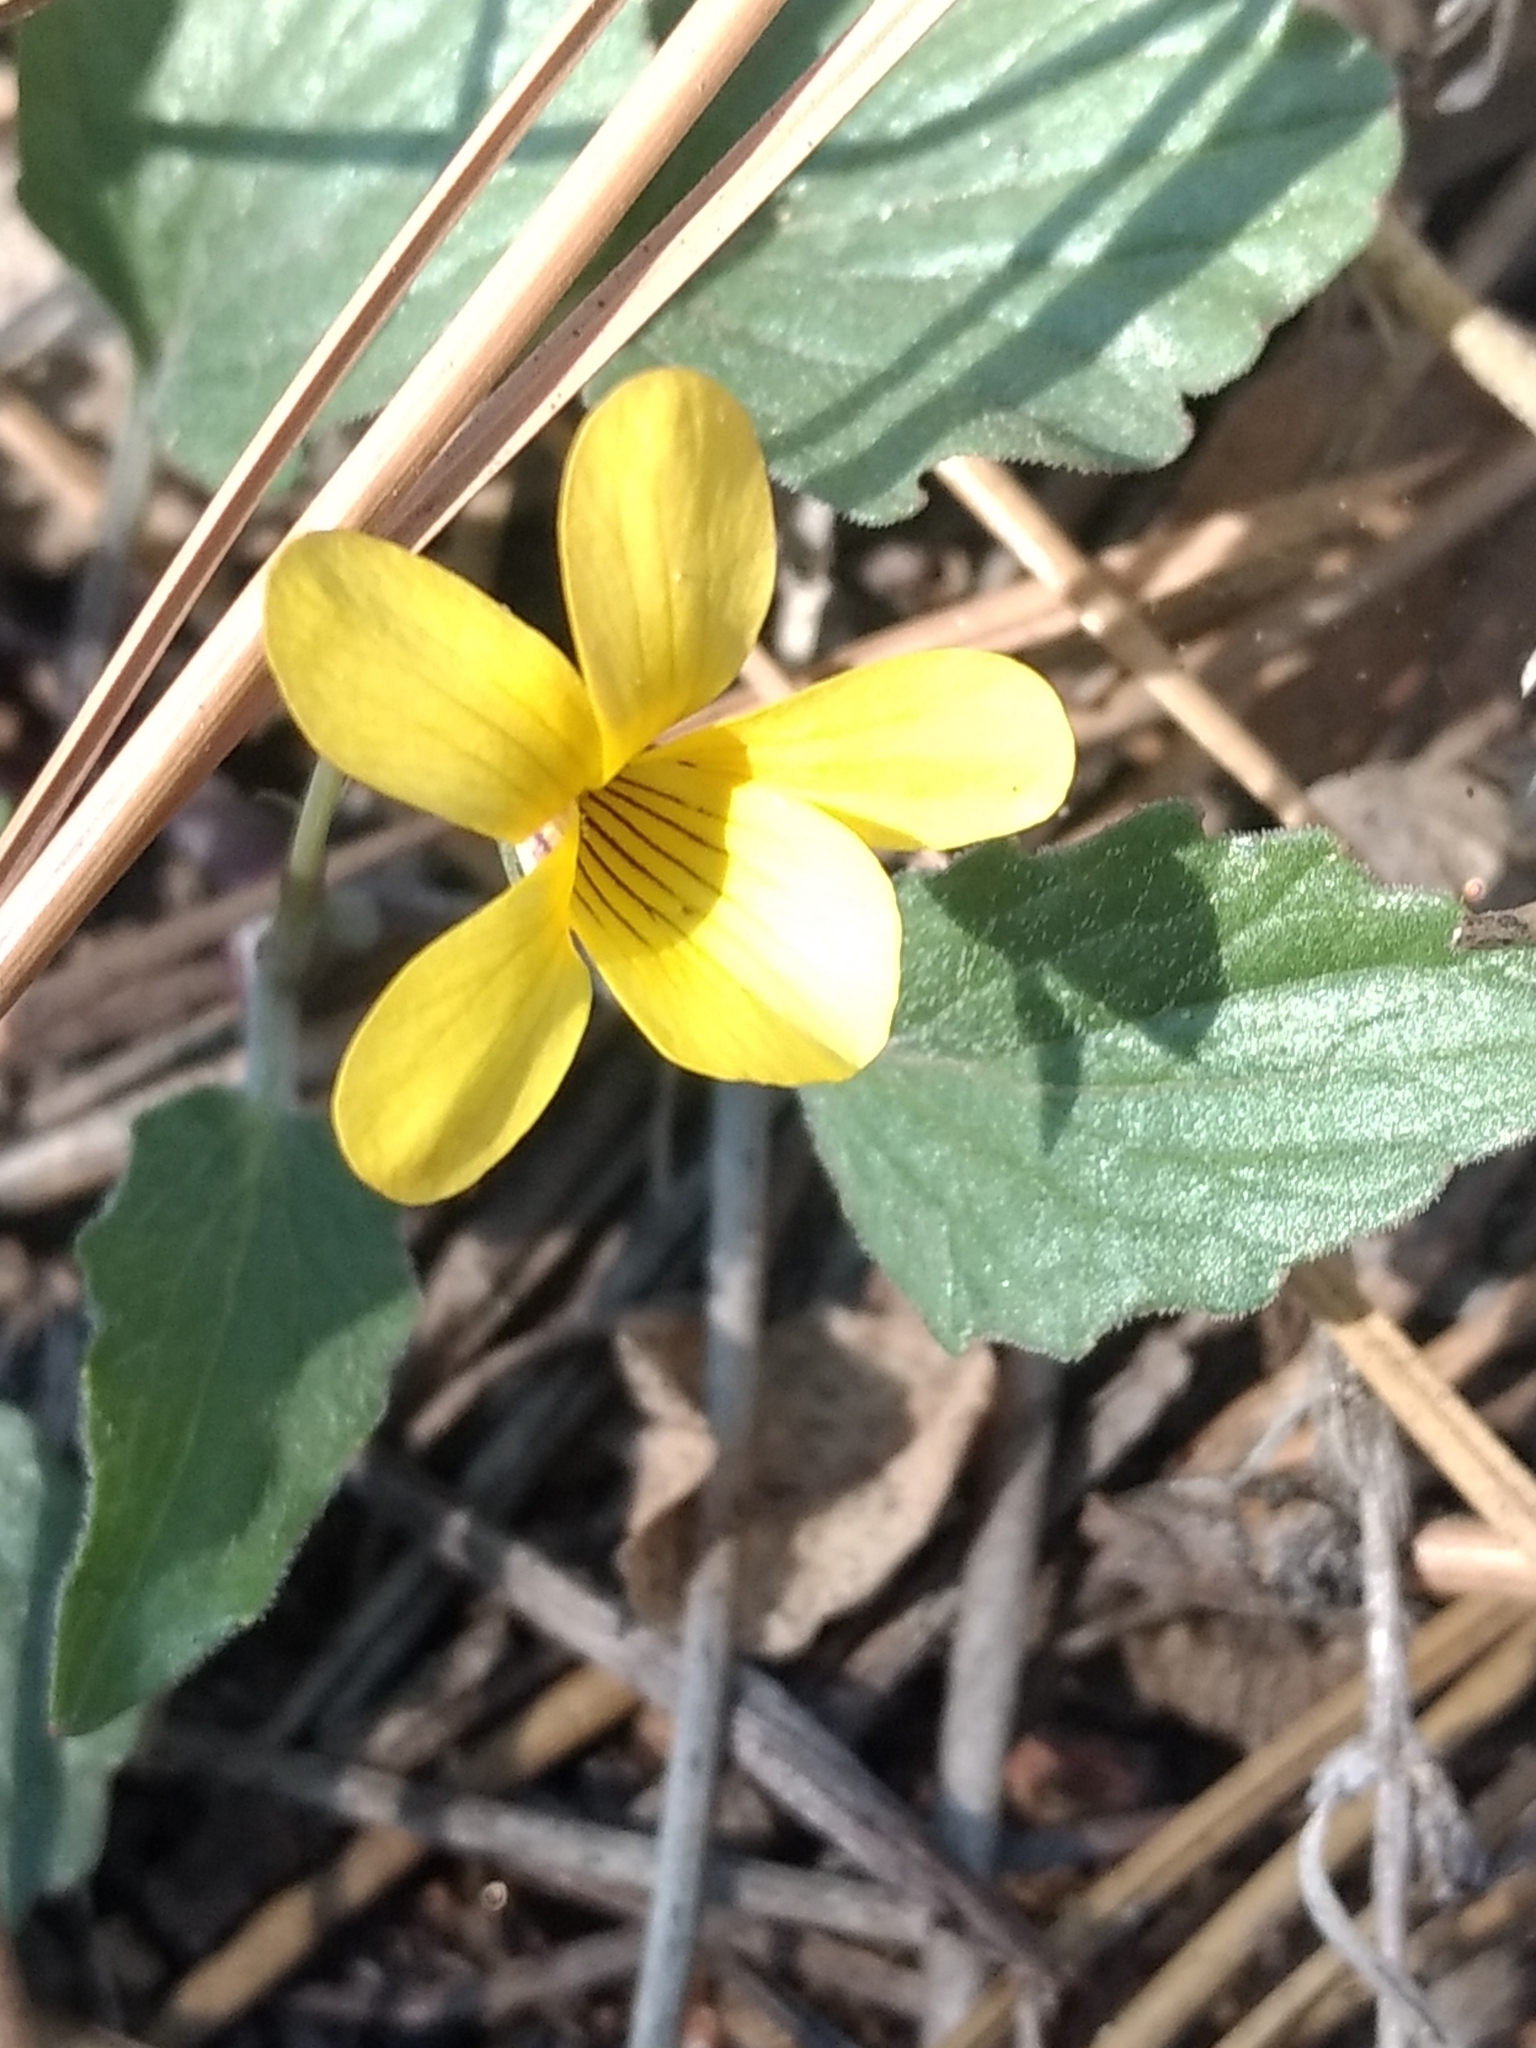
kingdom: Plantae
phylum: Tracheophyta
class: Magnoliopsida
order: Malpighiales
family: Violaceae
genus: Viola
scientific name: Viola purpurea
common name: Pine violet
